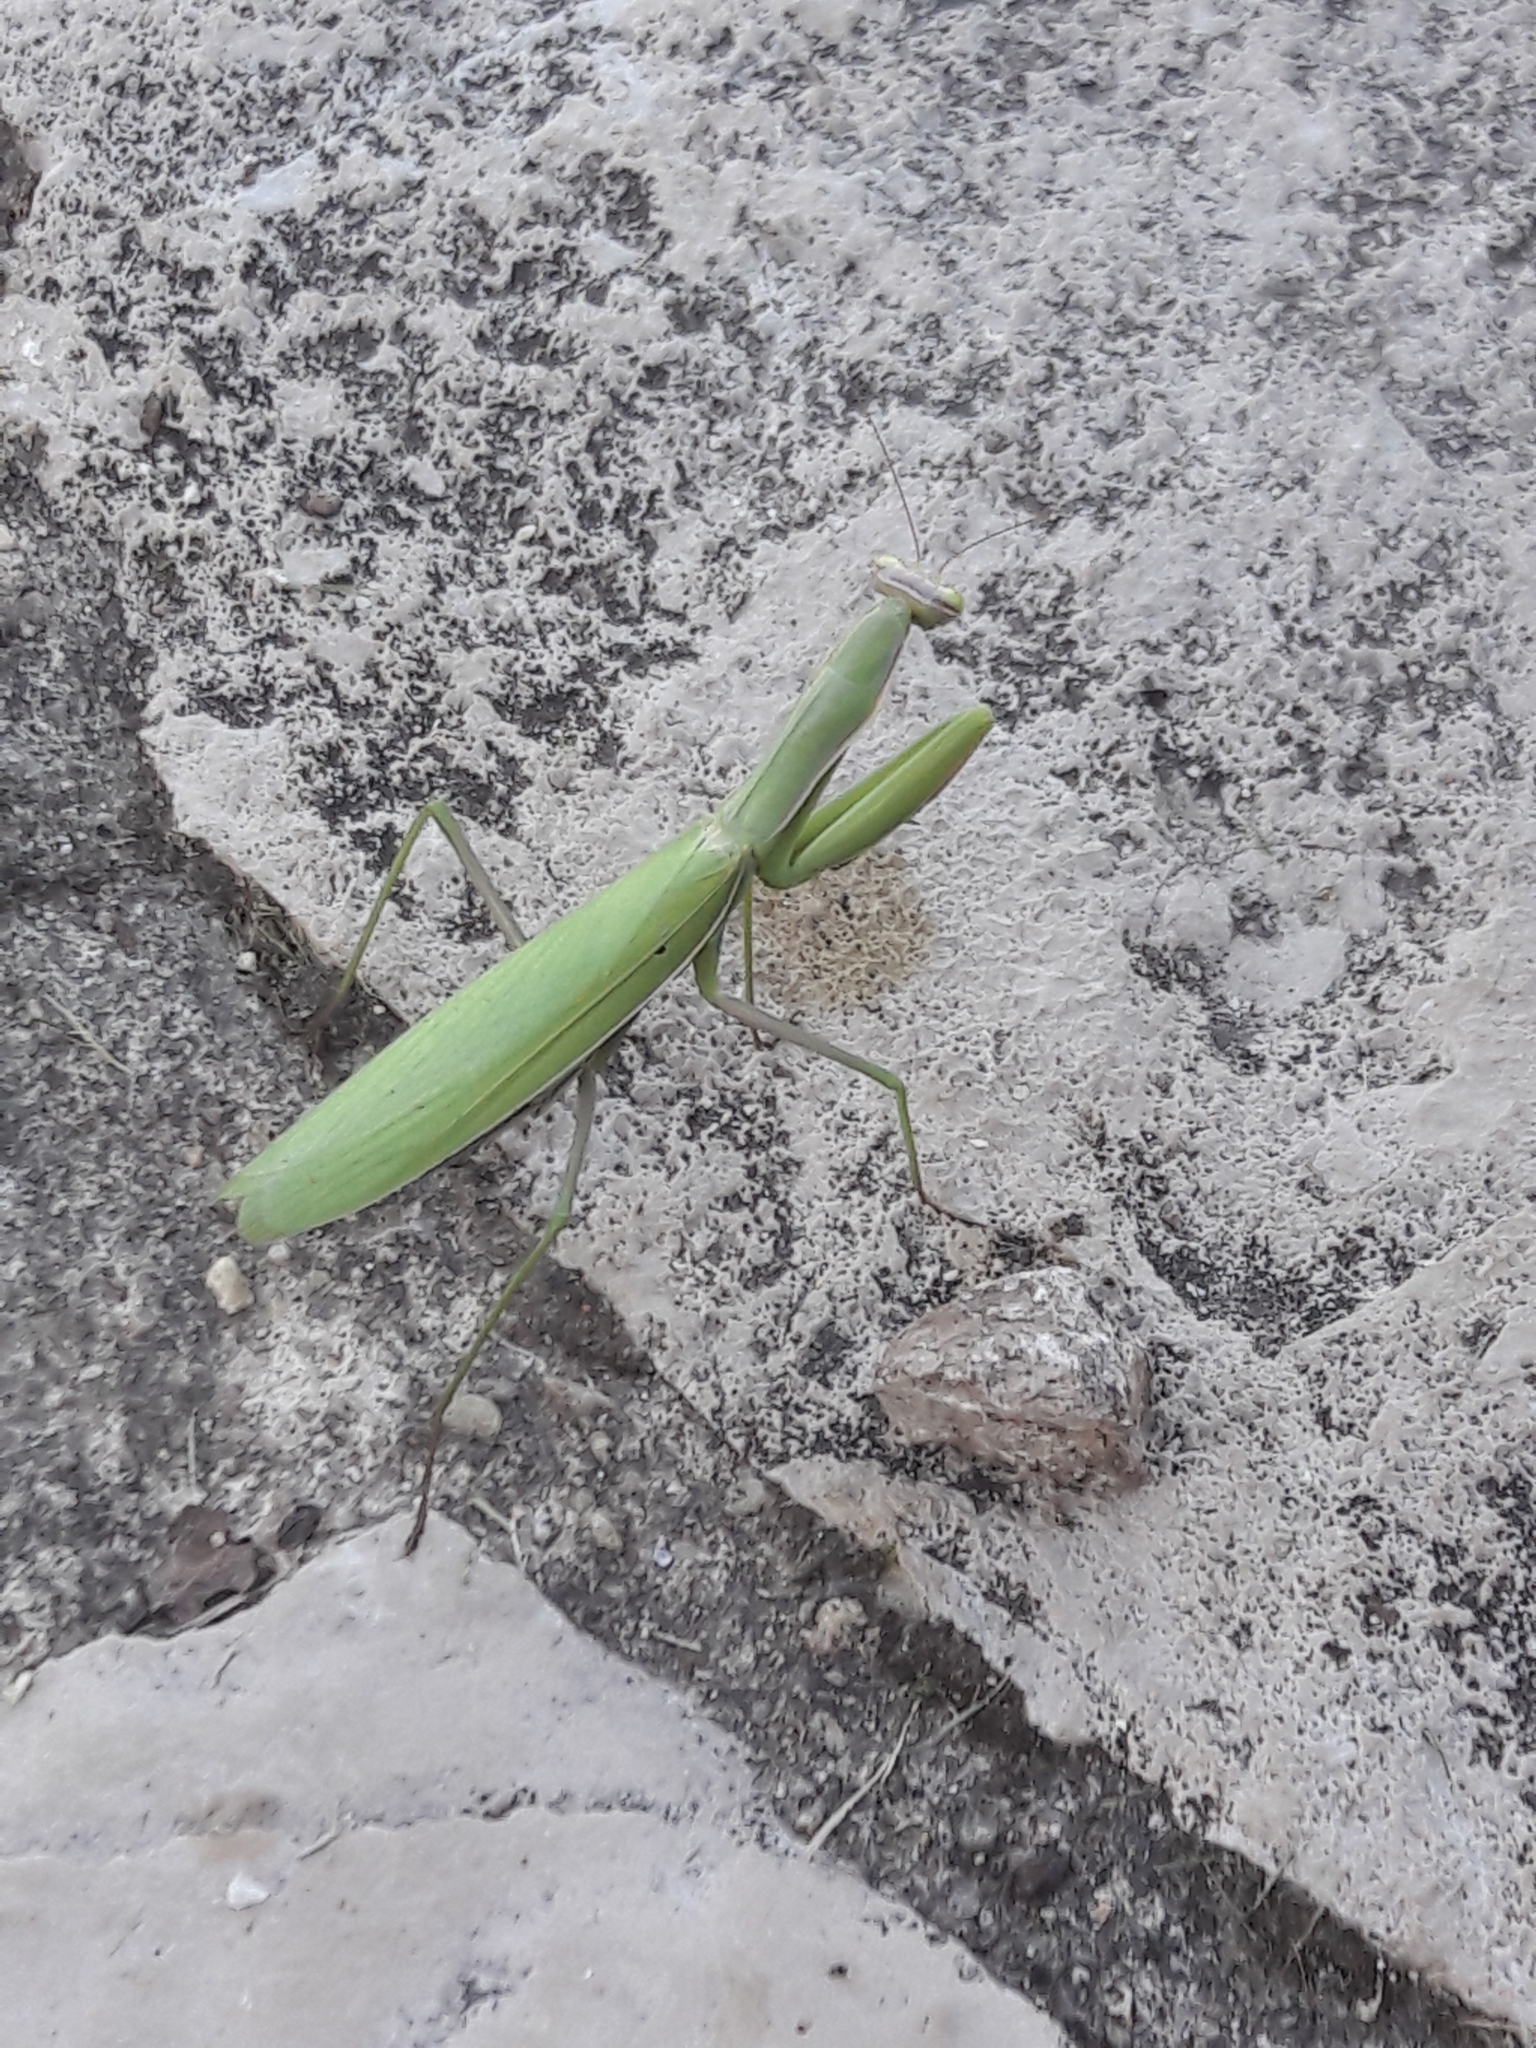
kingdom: Animalia
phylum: Arthropoda
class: Insecta
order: Mantodea
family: Mantidae
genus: Mantis
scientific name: Mantis religiosa
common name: Praying mantis
